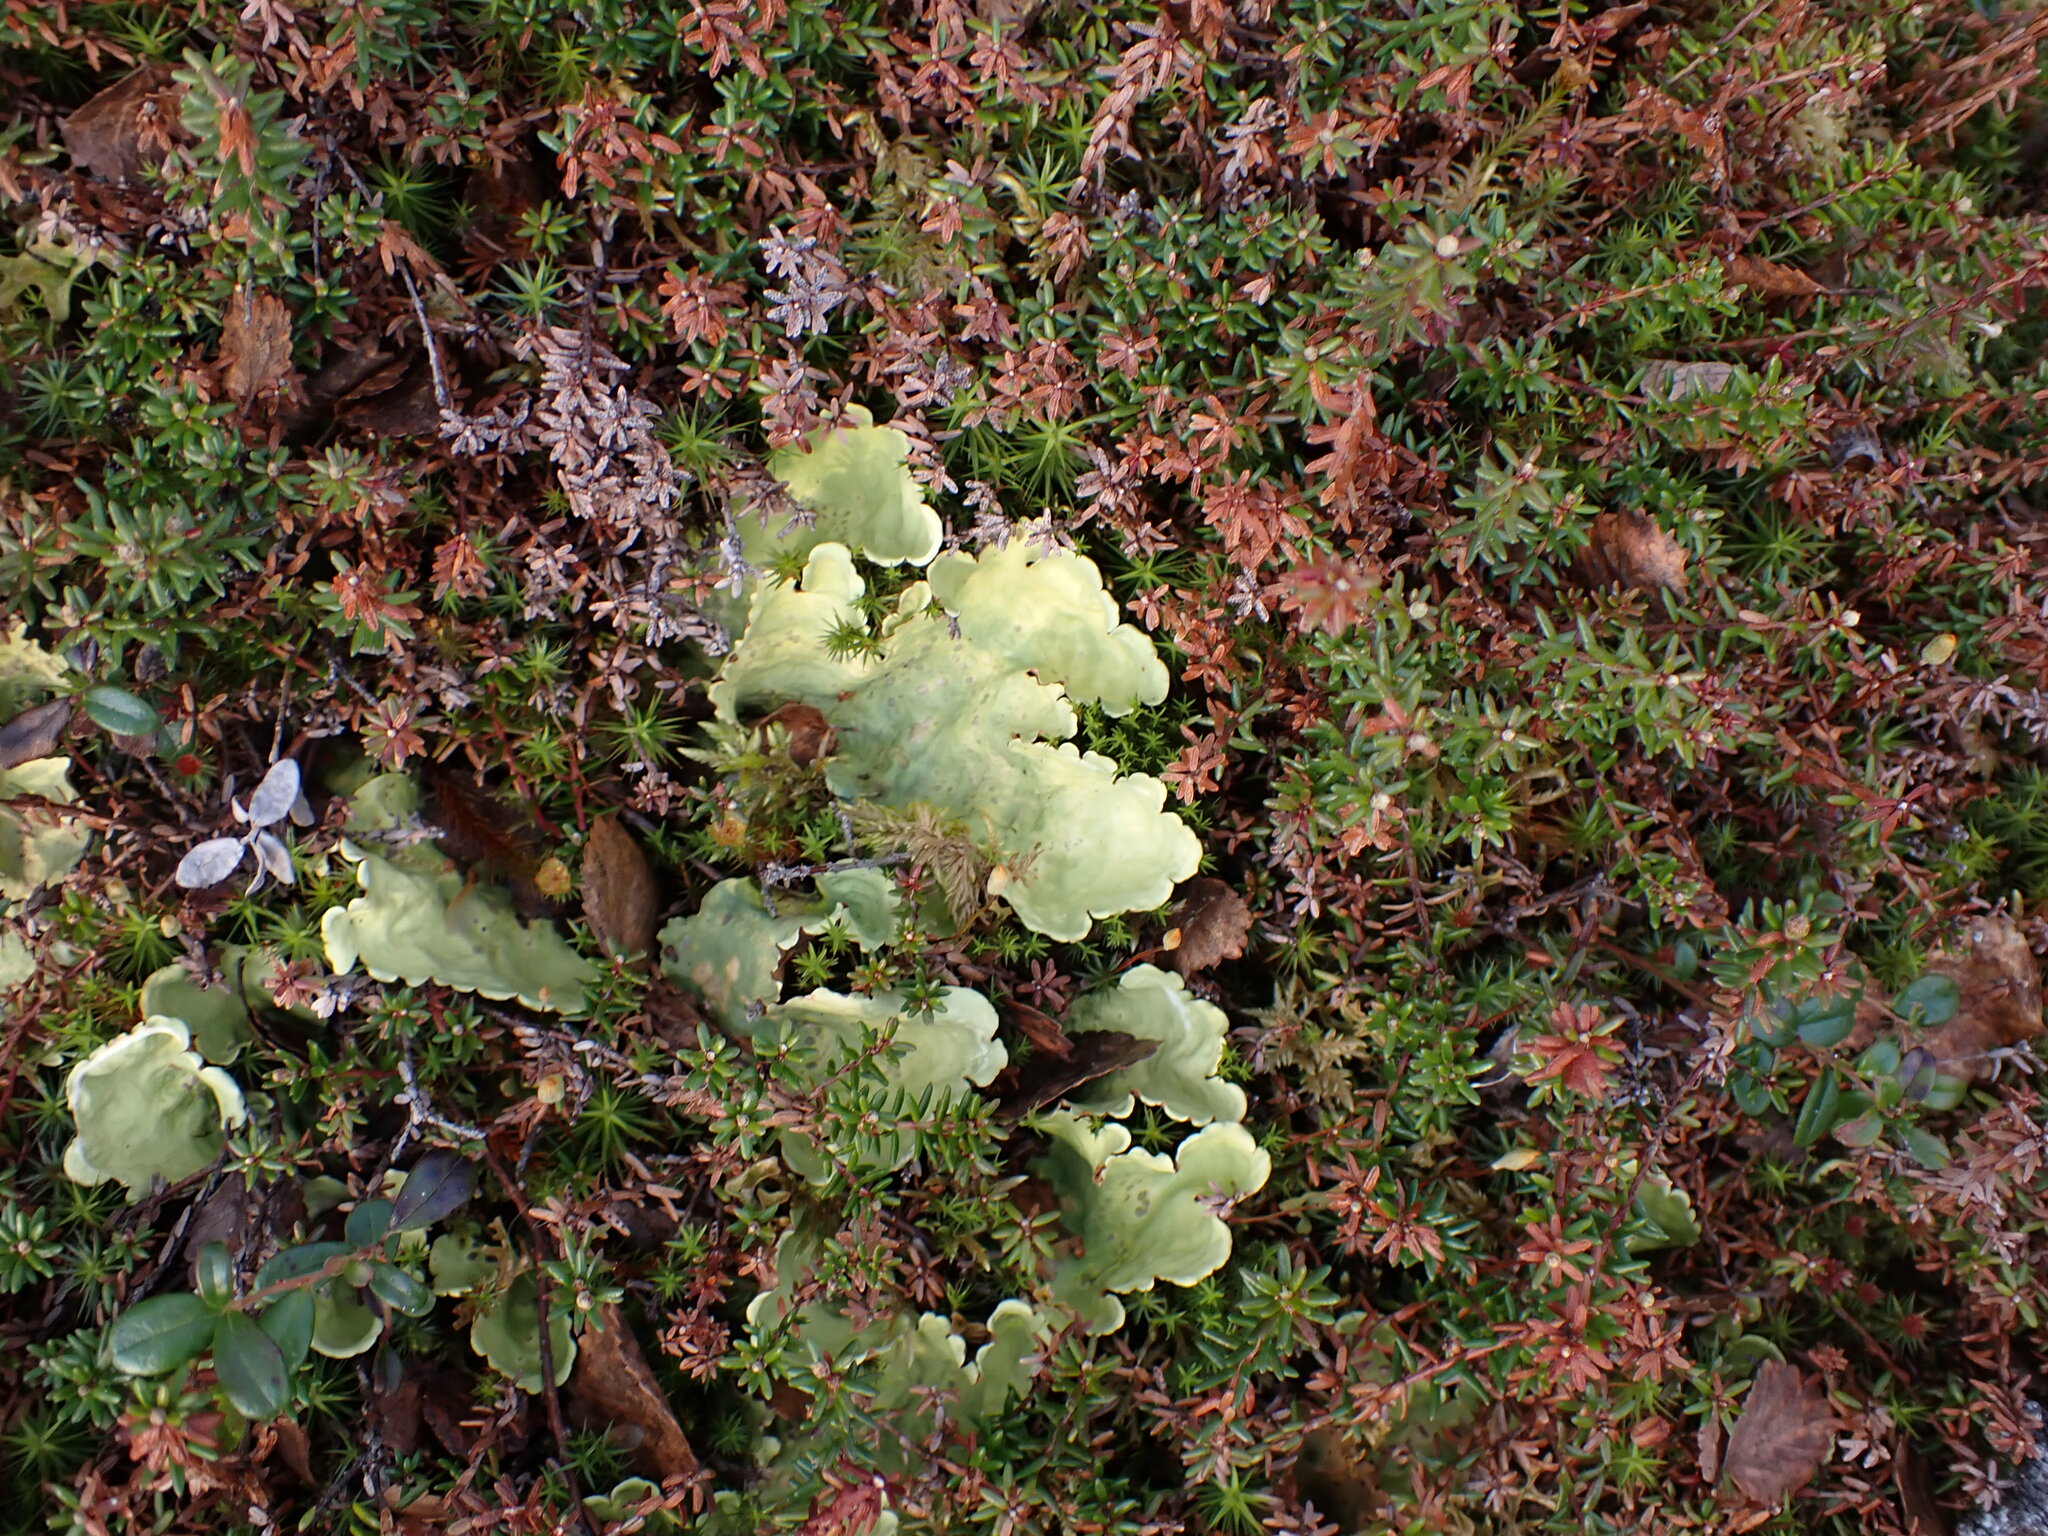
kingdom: Fungi
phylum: Ascomycota
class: Lecanoromycetes
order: Peltigerales
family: Nephromataceae
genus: Nephroma
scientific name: Nephroma arcticum
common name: Arctic kidney-lichen
